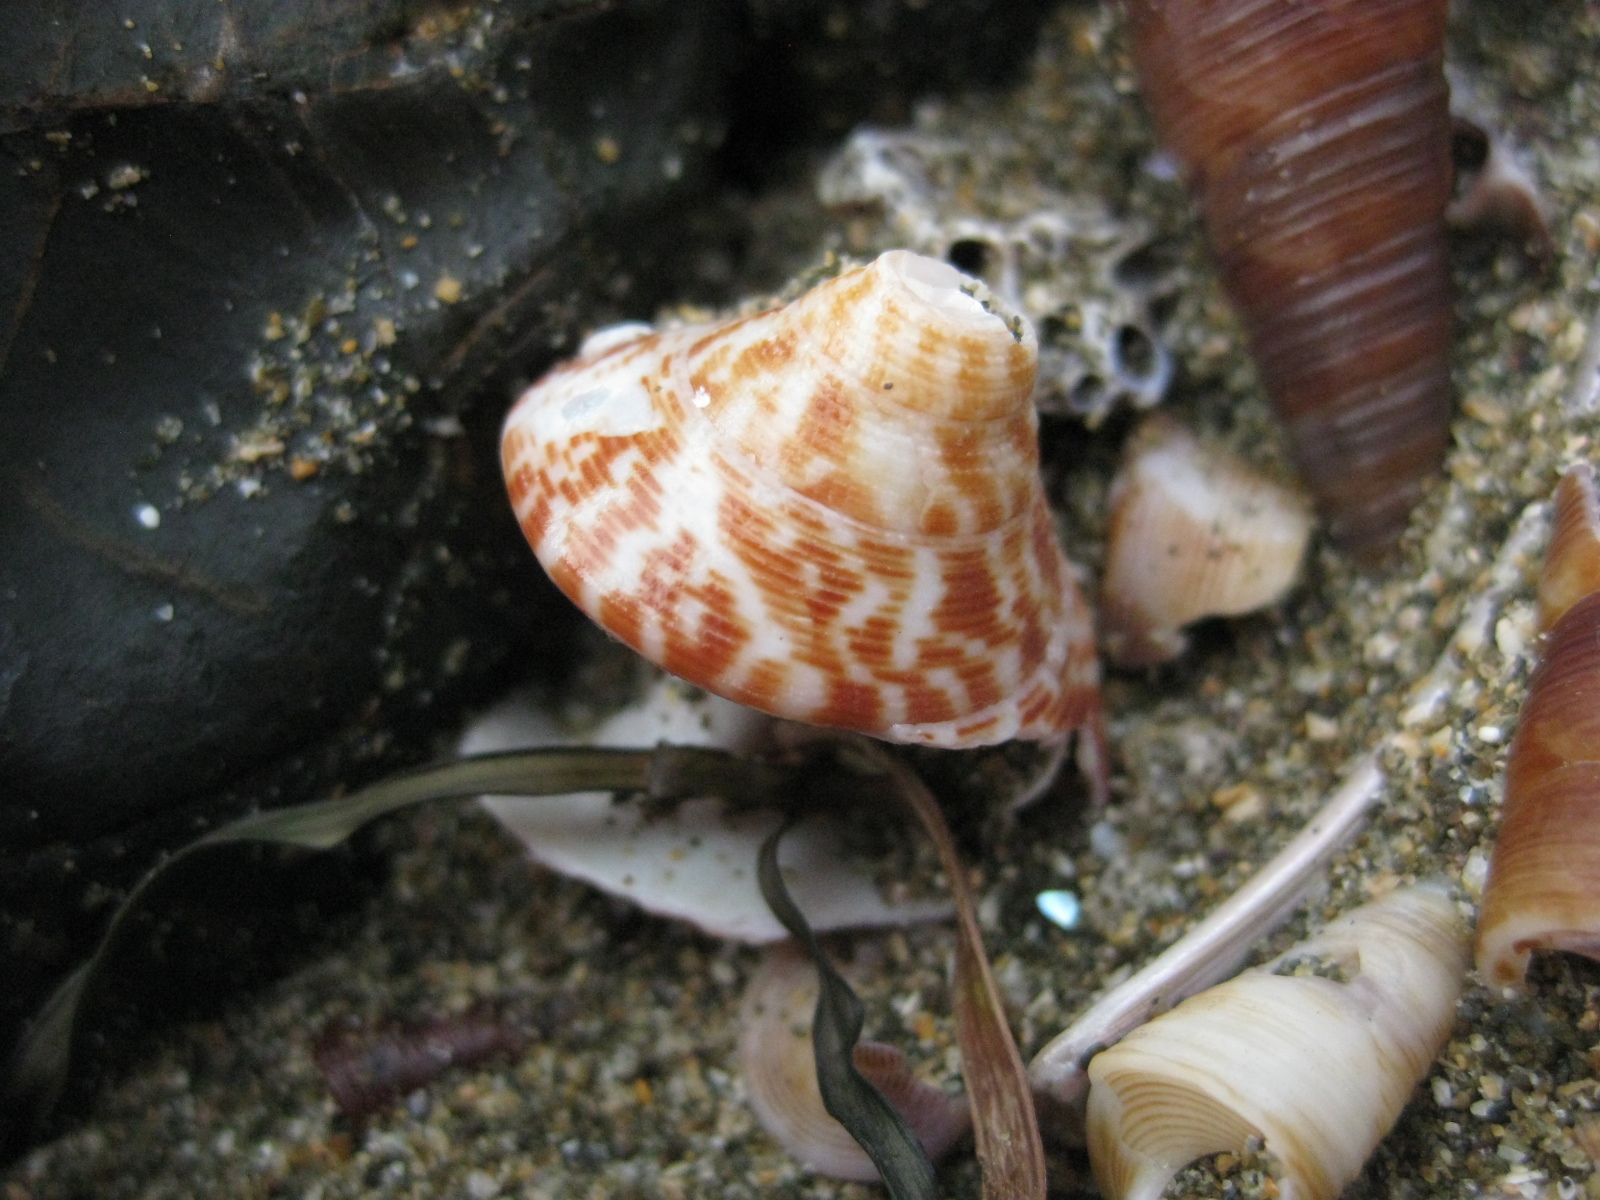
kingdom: Animalia
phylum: Mollusca
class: Gastropoda
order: Trochida
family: Calliostomatidae
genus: Maurea
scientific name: Maurea tigris
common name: Tiger maurea
